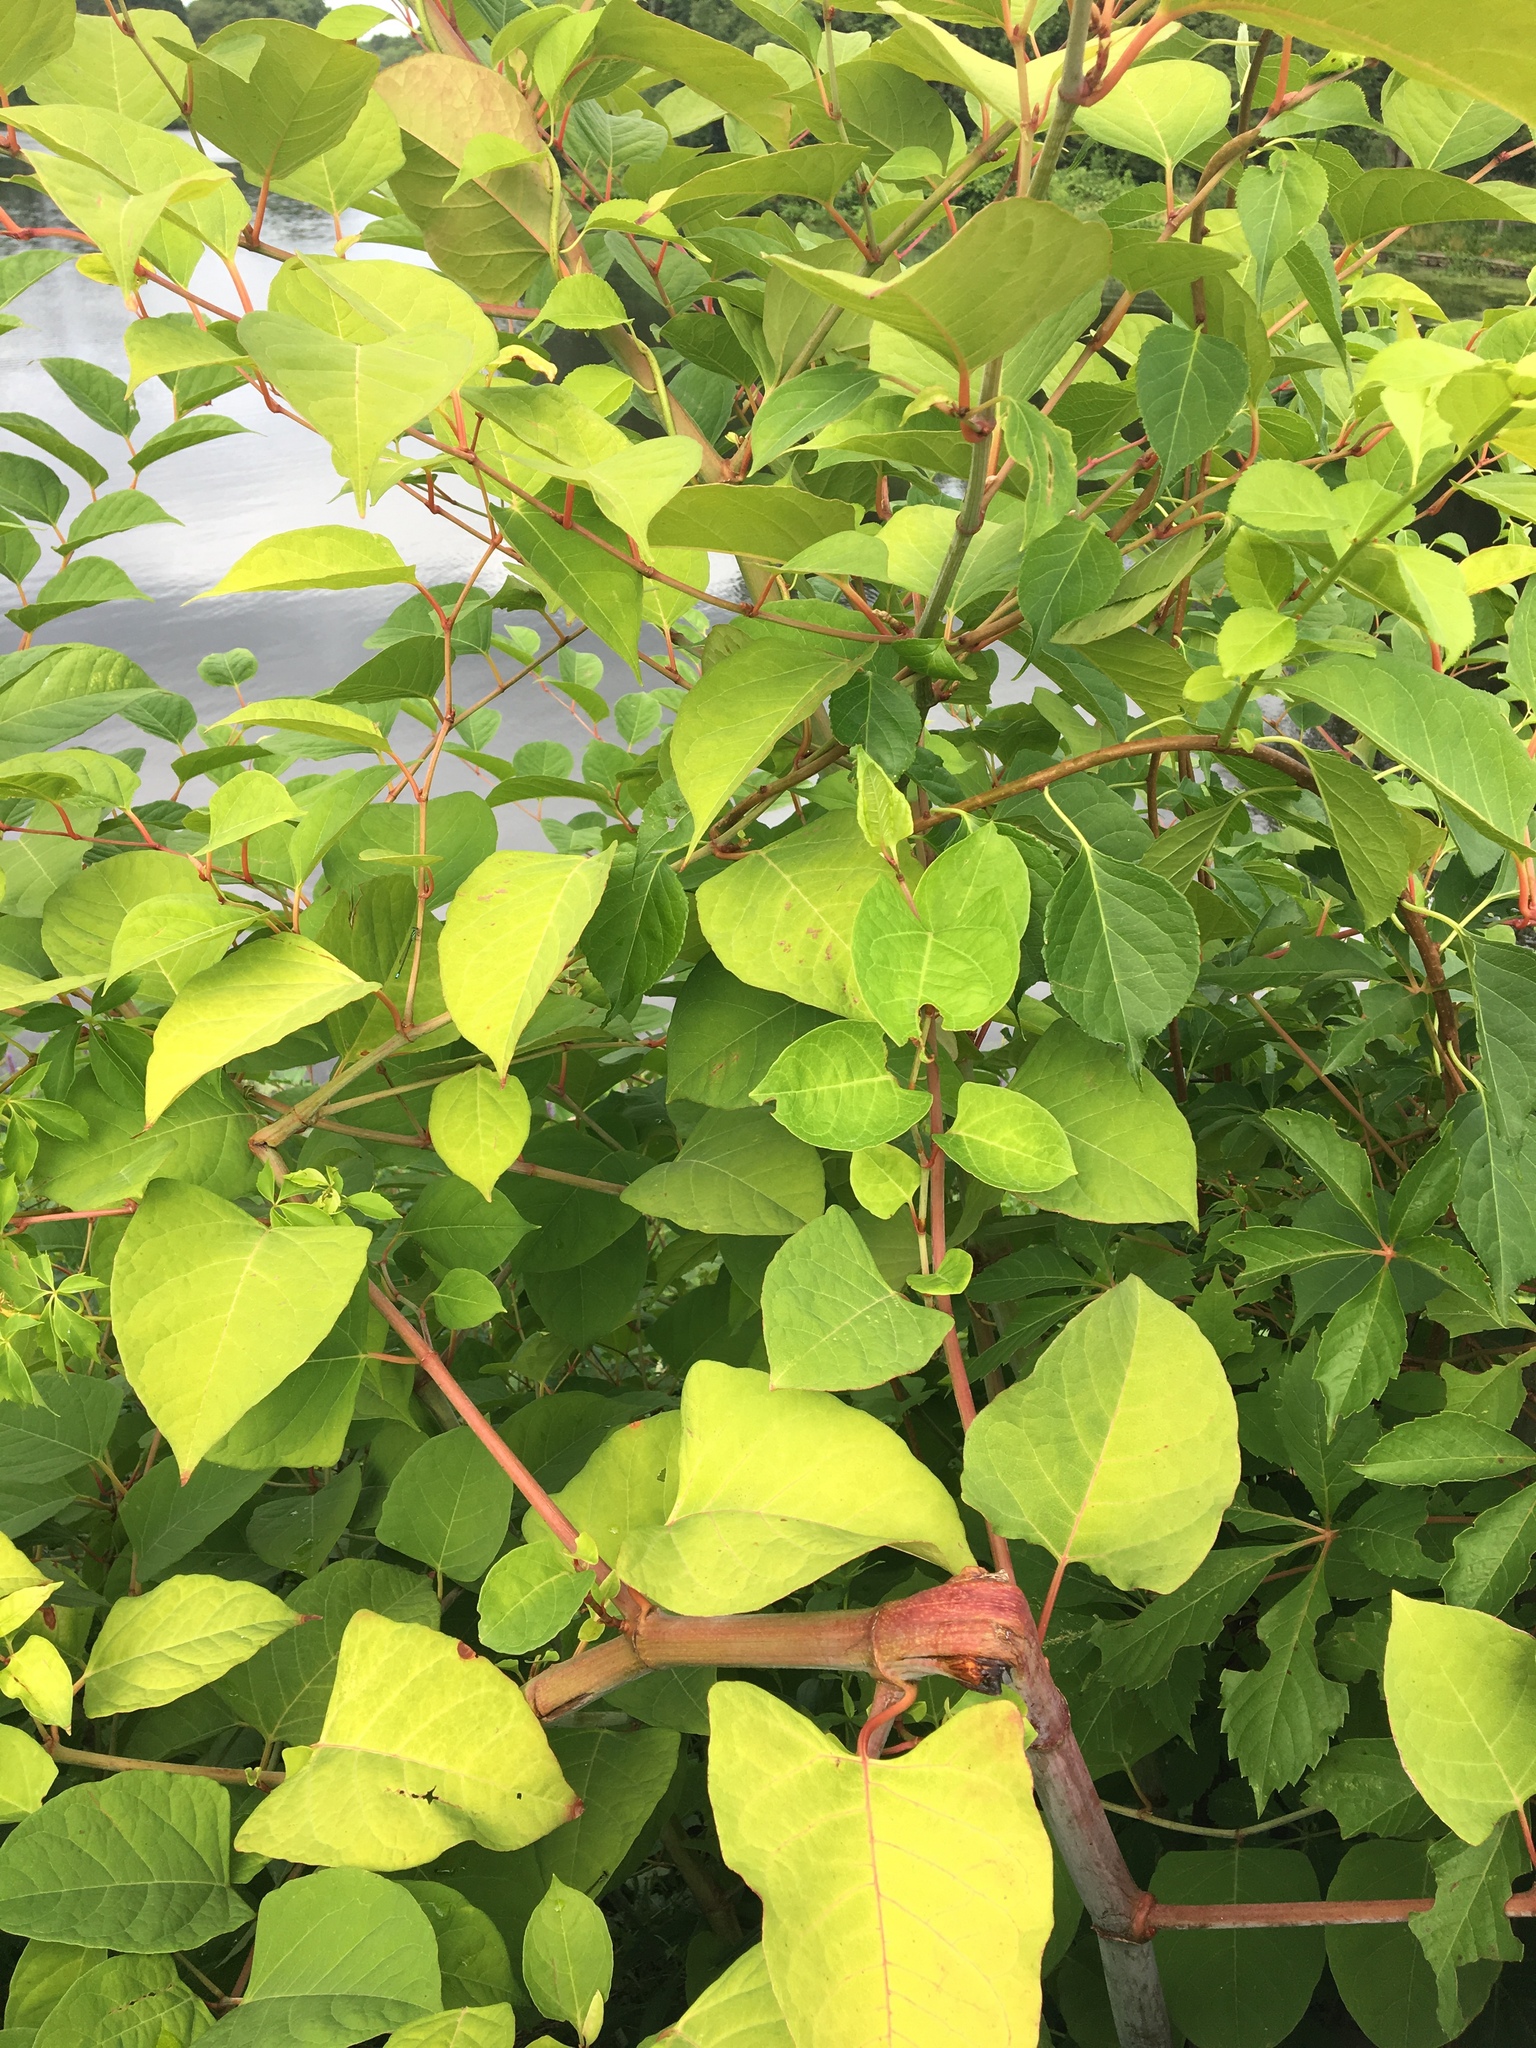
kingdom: Plantae
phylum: Tracheophyta
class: Magnoliopsida
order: Caryophyllales
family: Polygonaceae
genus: Reynoutria
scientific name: Reynoutria japonica
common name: Japanese knotweed
